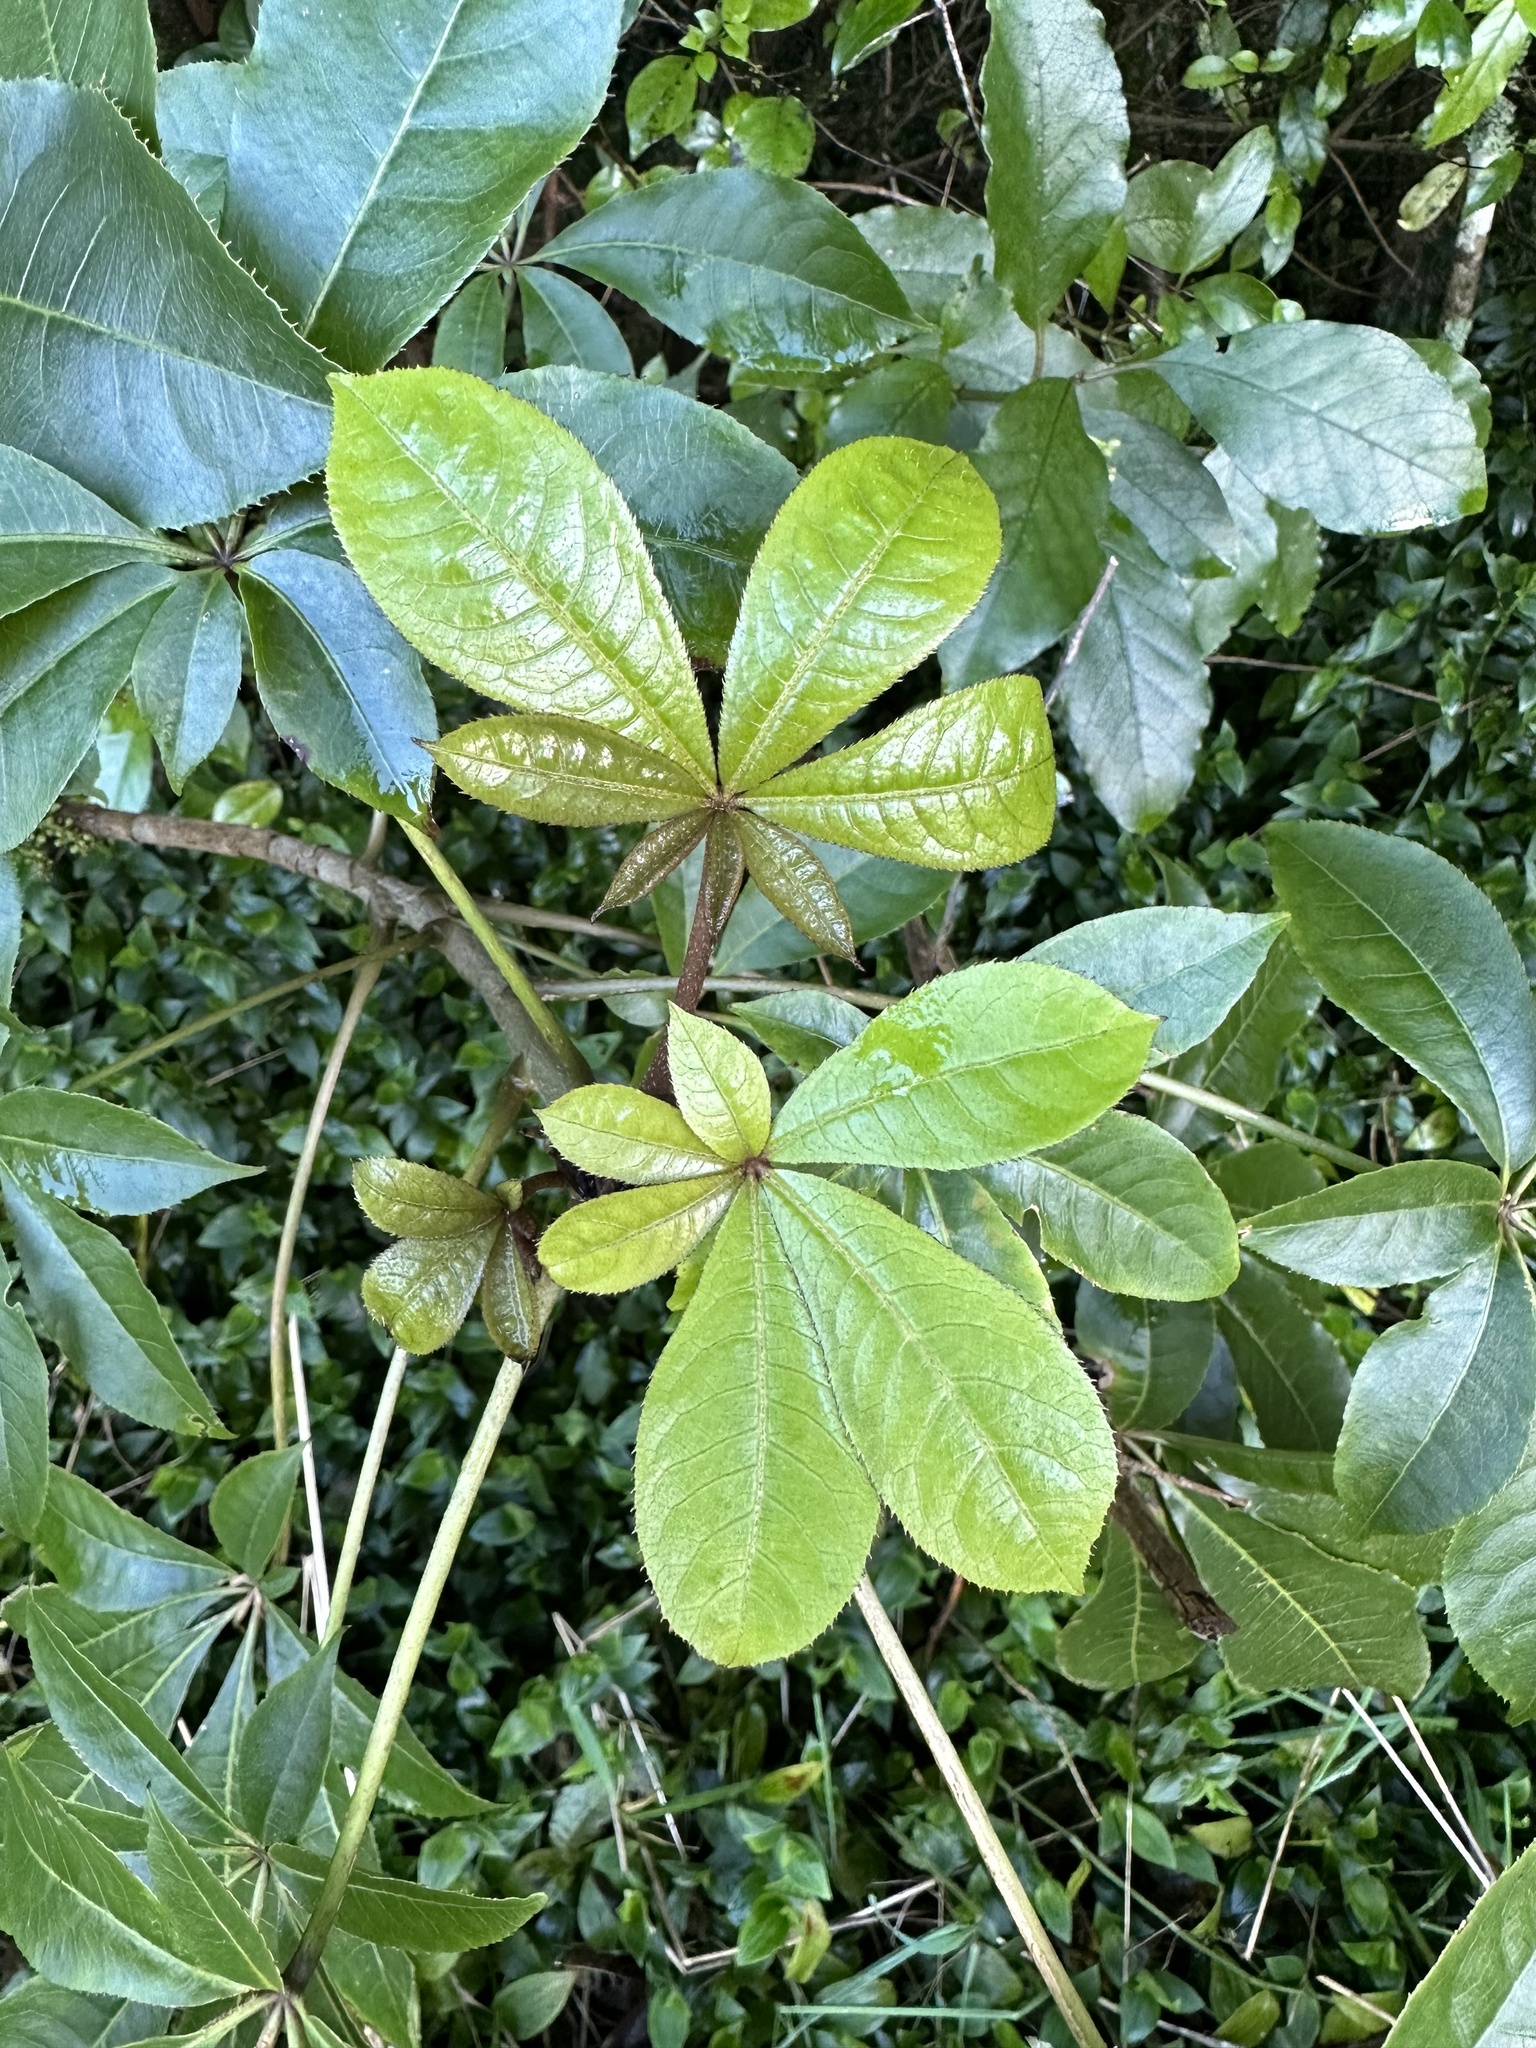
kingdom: Plantae
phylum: Tracheophyta
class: Magnoliopsida
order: Apiales
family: Araliaceae
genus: Schefflera
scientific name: Schefflera digitata
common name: Pate
